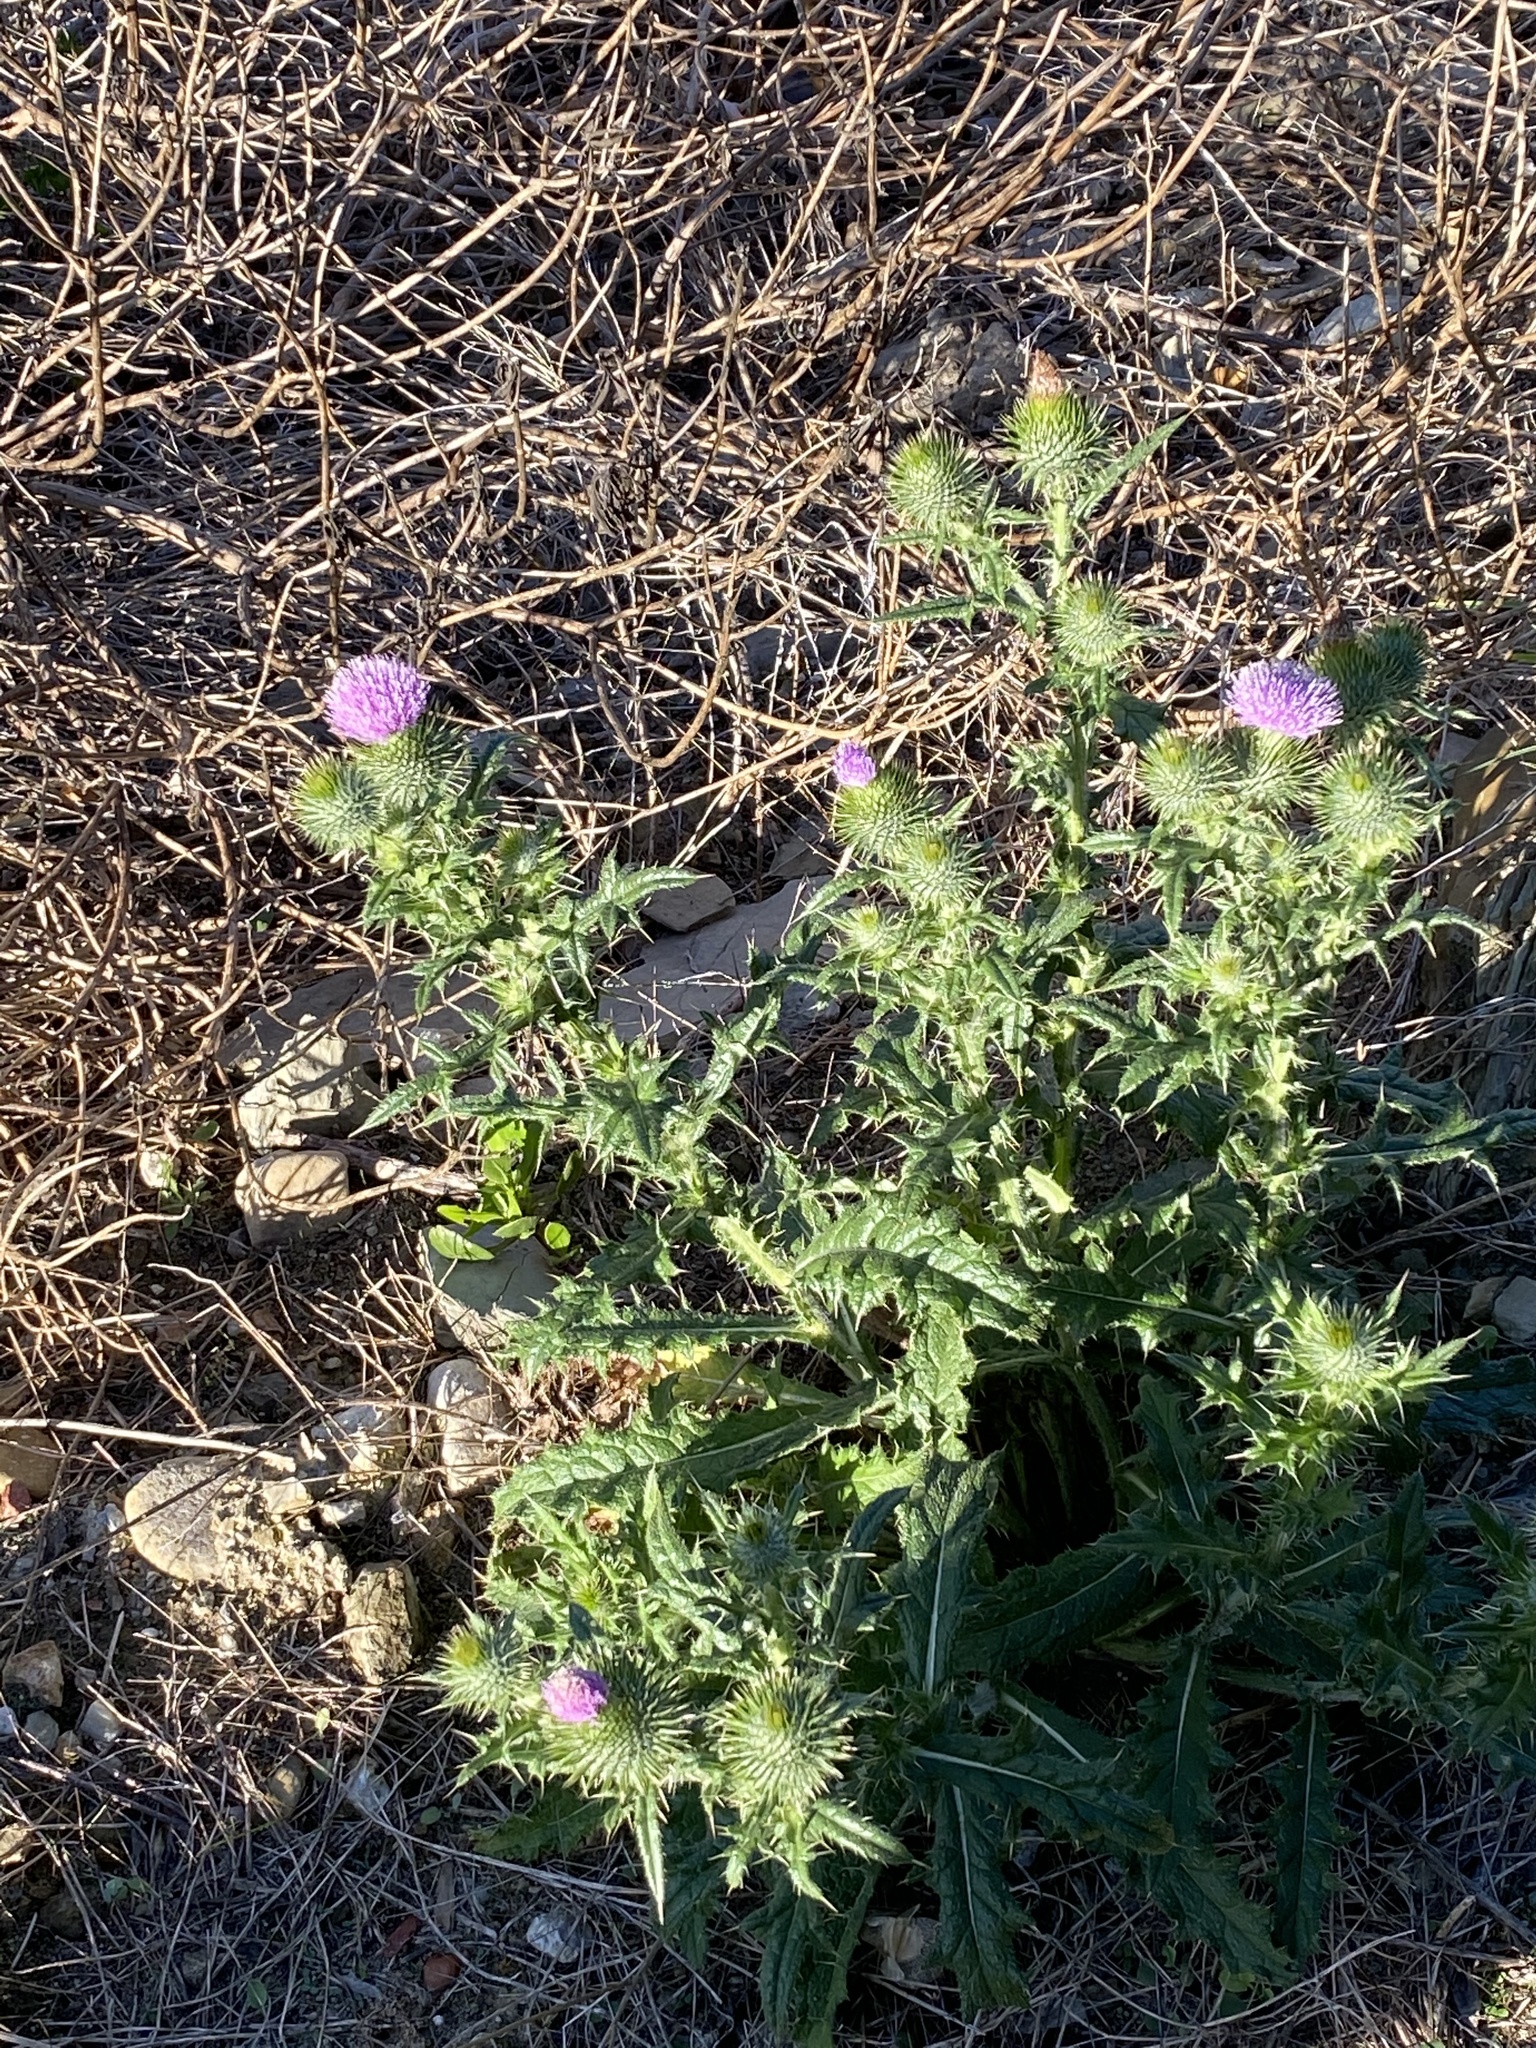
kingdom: Plantae
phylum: Tracheophyta
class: Magnoliopsida
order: Asterales
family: Asteraceae
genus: Cirsium
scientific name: Cirsium vulgare
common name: Bull thistle
